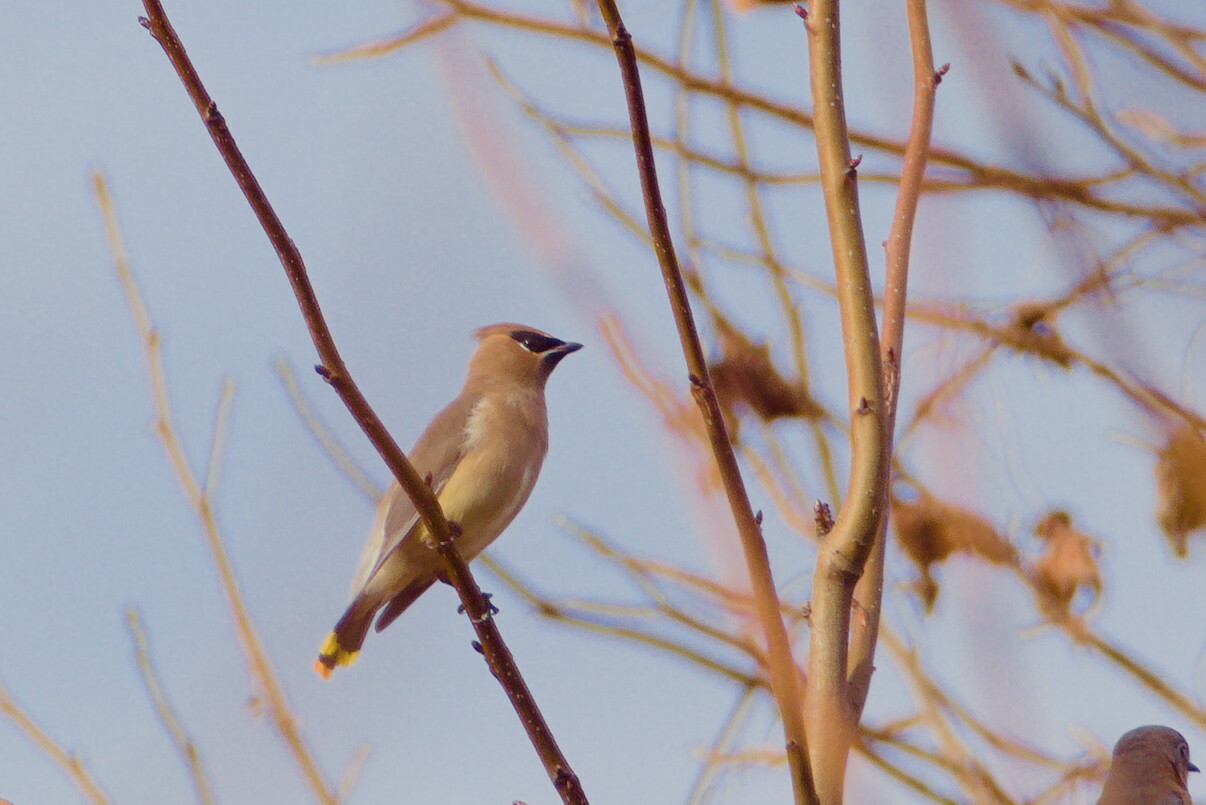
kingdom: Animalia
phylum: Chordata
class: Aves
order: Passeriformes
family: Bombycillidae
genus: Bombycilla
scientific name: Bombycilla cedrorum
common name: Cedar waxwing
